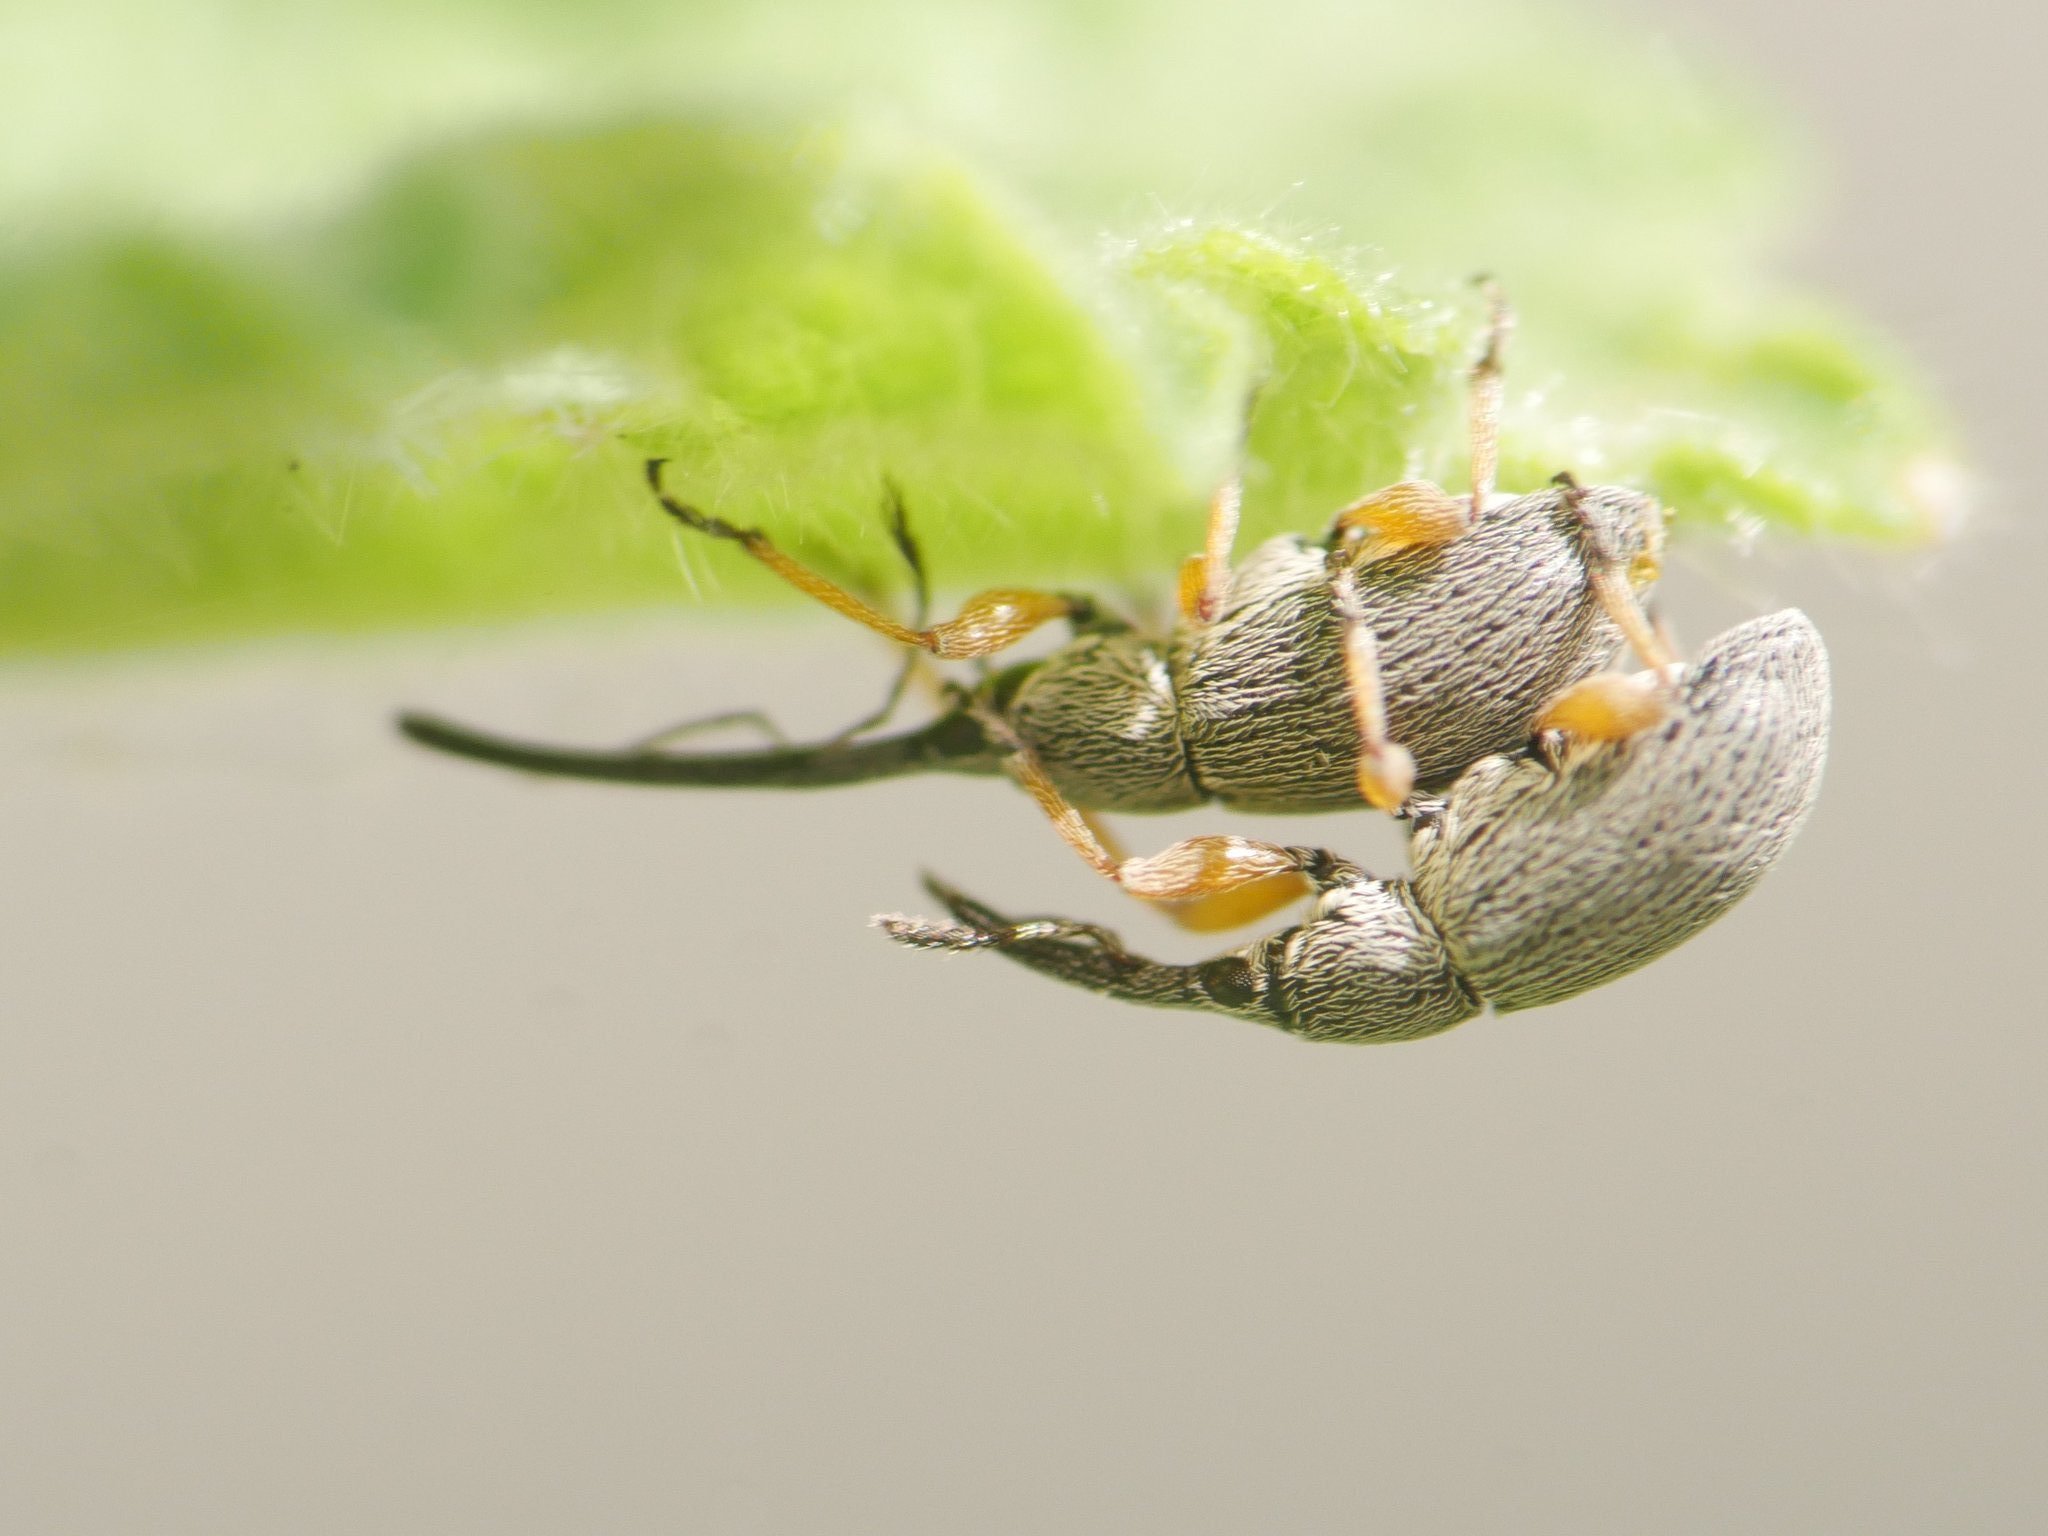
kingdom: Animalia
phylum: Arthropoda
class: Insecta
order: Coleoptera
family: Brentidae
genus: Rhopalapion
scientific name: Rhopalapion longirostre
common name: Hollyhock weevil
